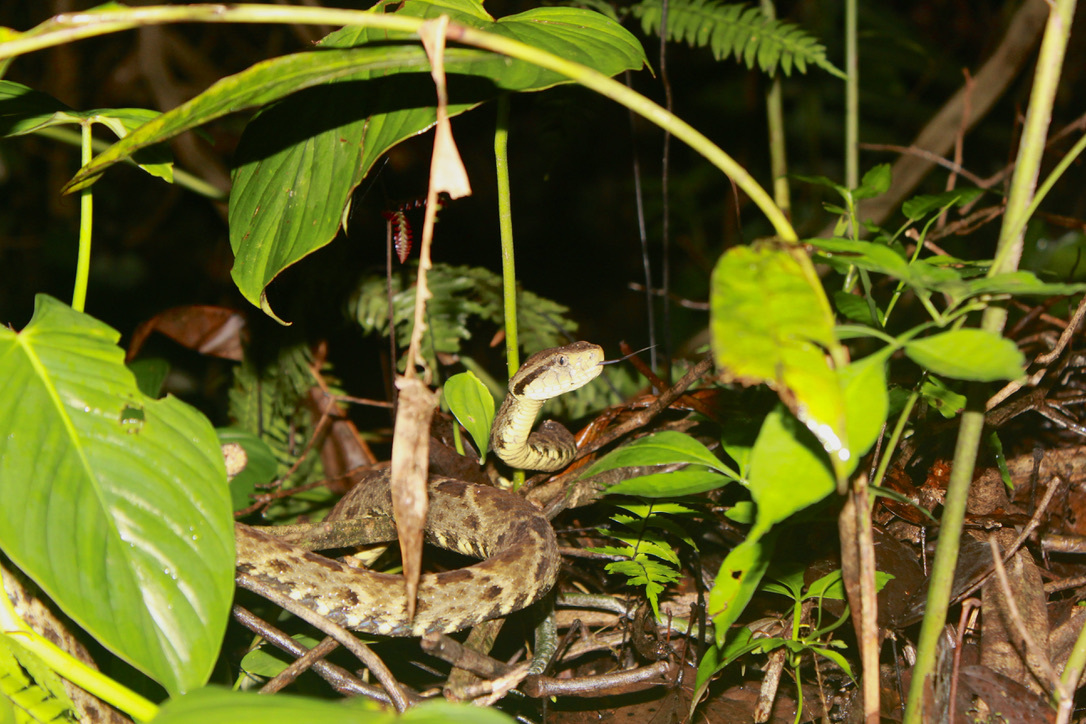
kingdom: Animalia
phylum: Chordata
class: Squamata
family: Viperidae
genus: Bothrops
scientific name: Bothrops atrox
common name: Common lancehead
